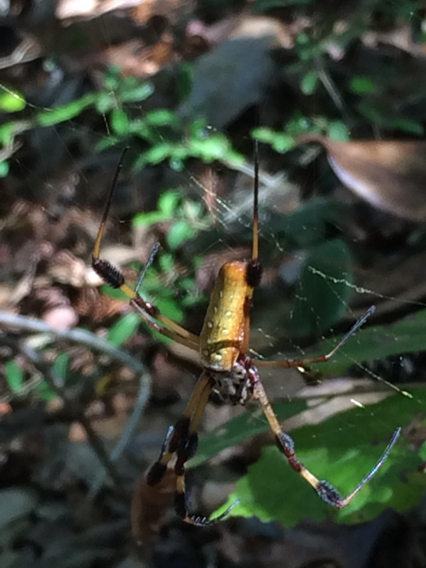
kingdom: Animalia
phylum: Arthropoda
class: Arachnida
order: Araneae
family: Araneidae
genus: Trichonephila
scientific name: Trichonephila clavipes
